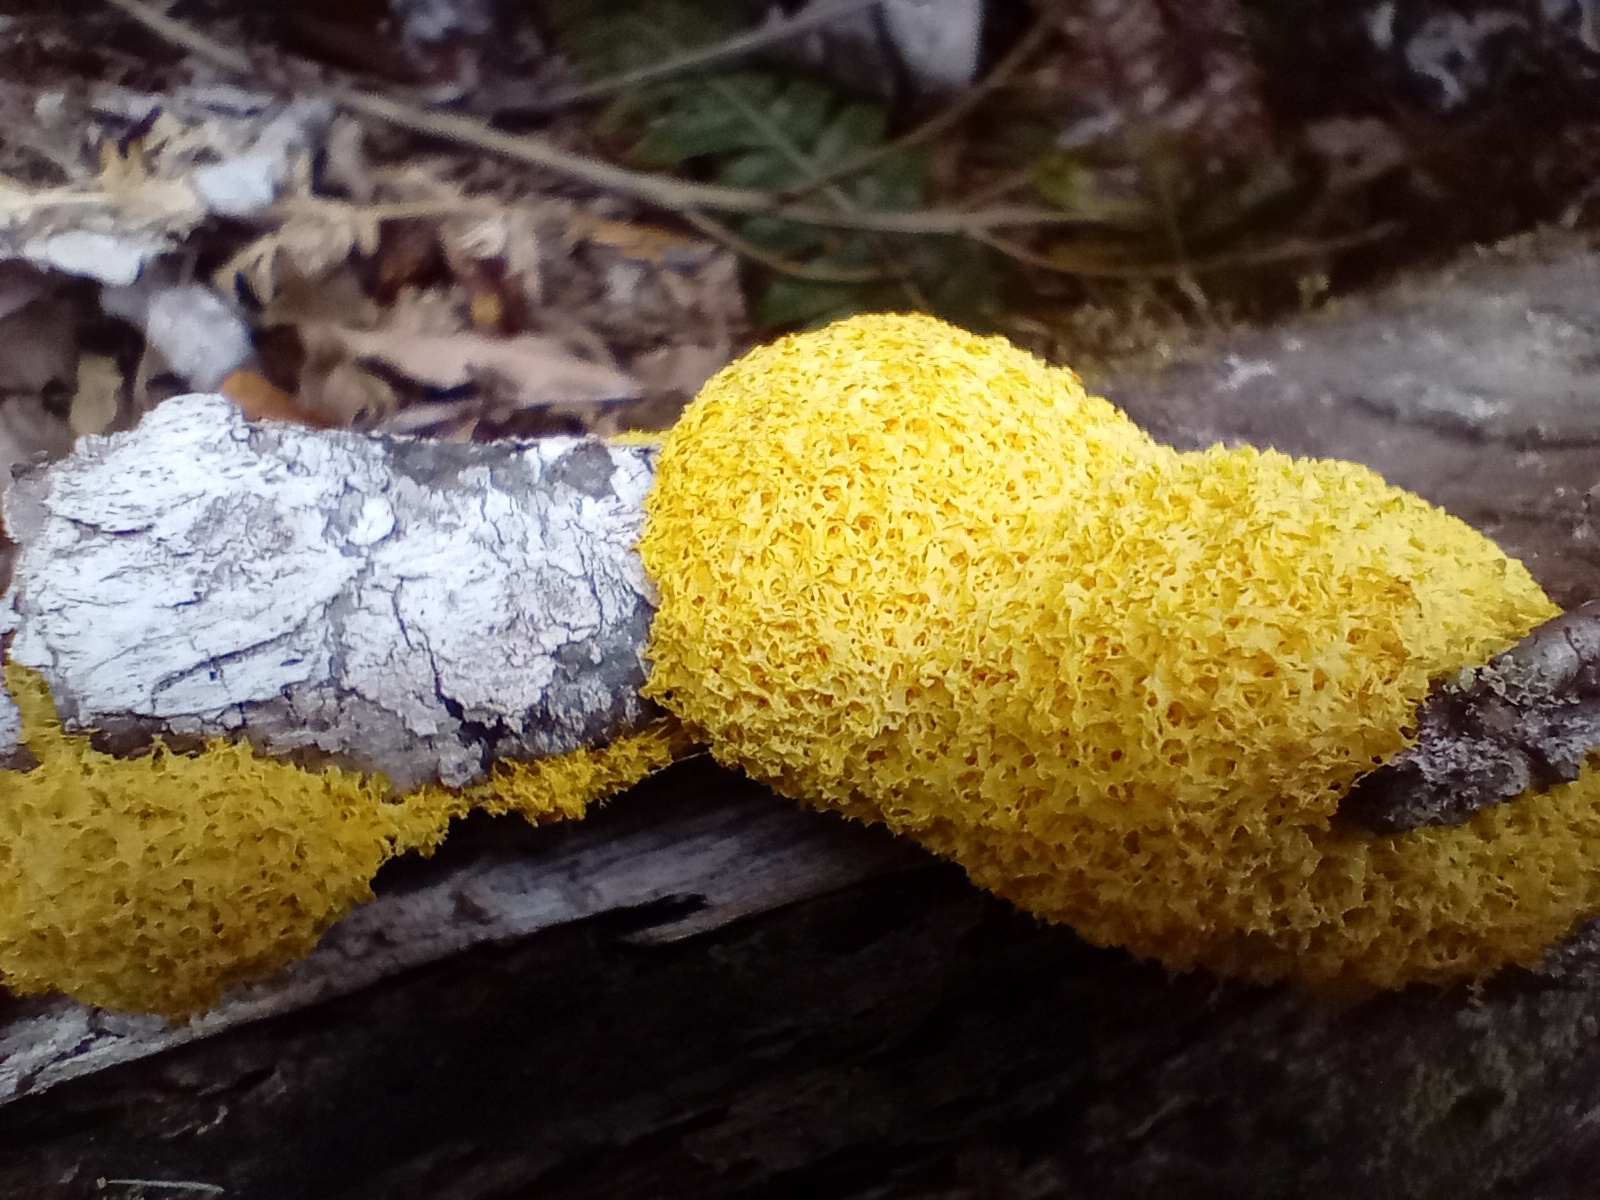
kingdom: Protozoa
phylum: Mycetozoa
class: Myxomycetes
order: Physarales
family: Physaraceae
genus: Fuligo
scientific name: Fuligo septica
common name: Dog vomit slime mold
